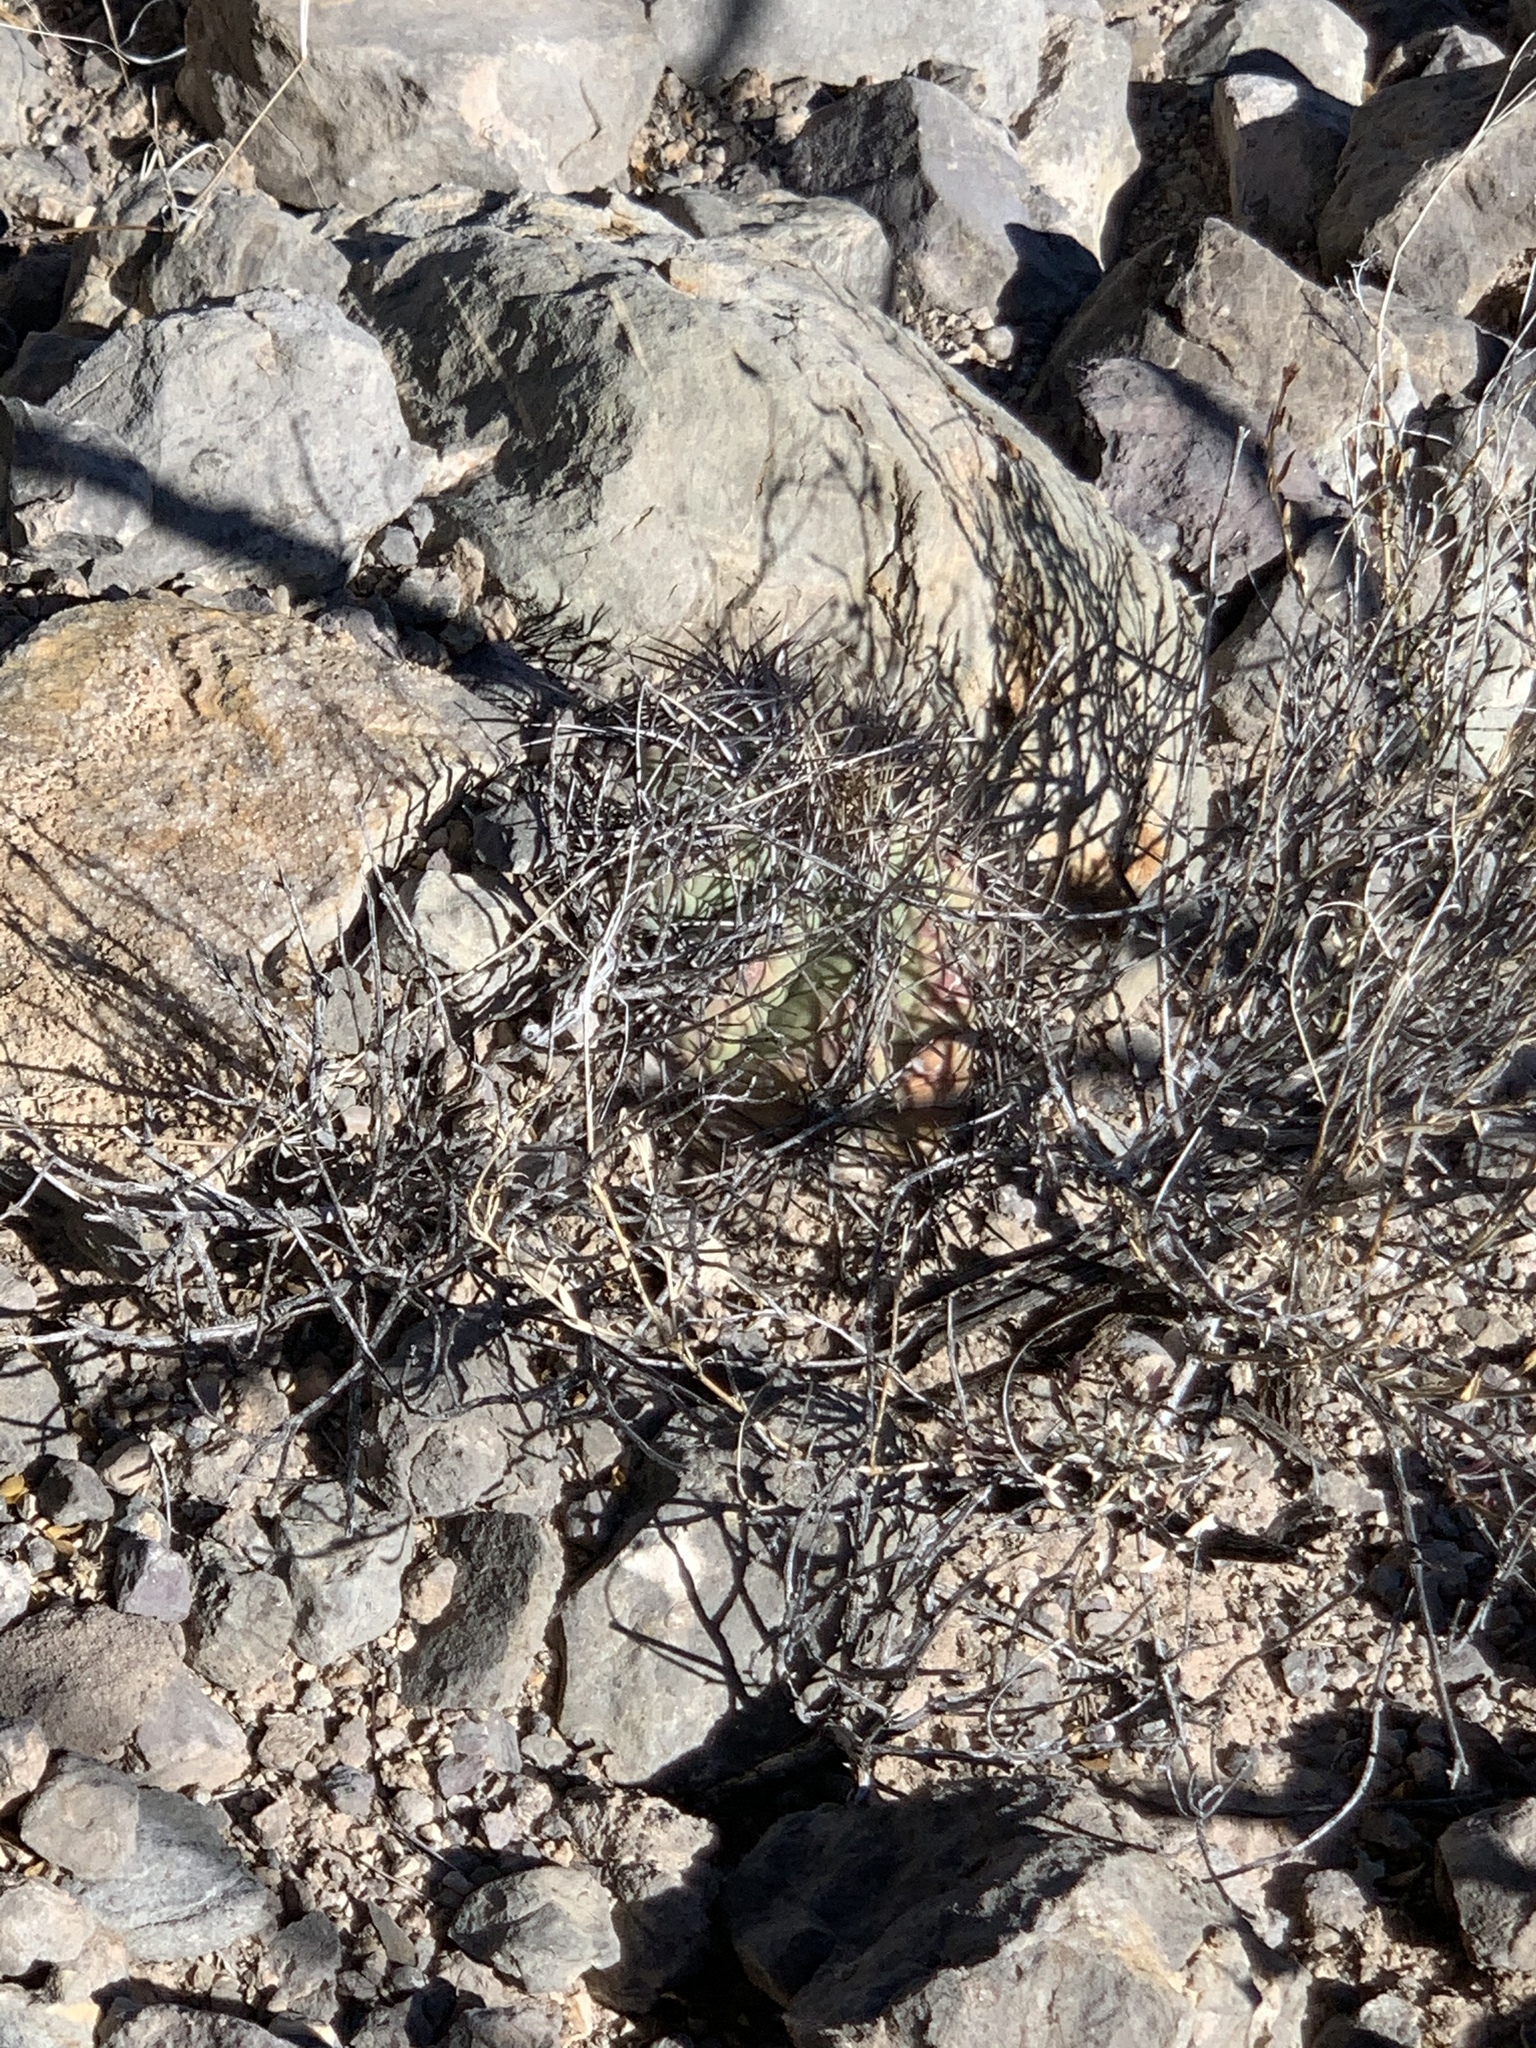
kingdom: Plantae
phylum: Tracheophyta
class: Magnoliopsida
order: Caryophyllales
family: Cactaceae
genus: Echinocactus
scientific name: Echinocactus horizonthalonius
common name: Devilshead
